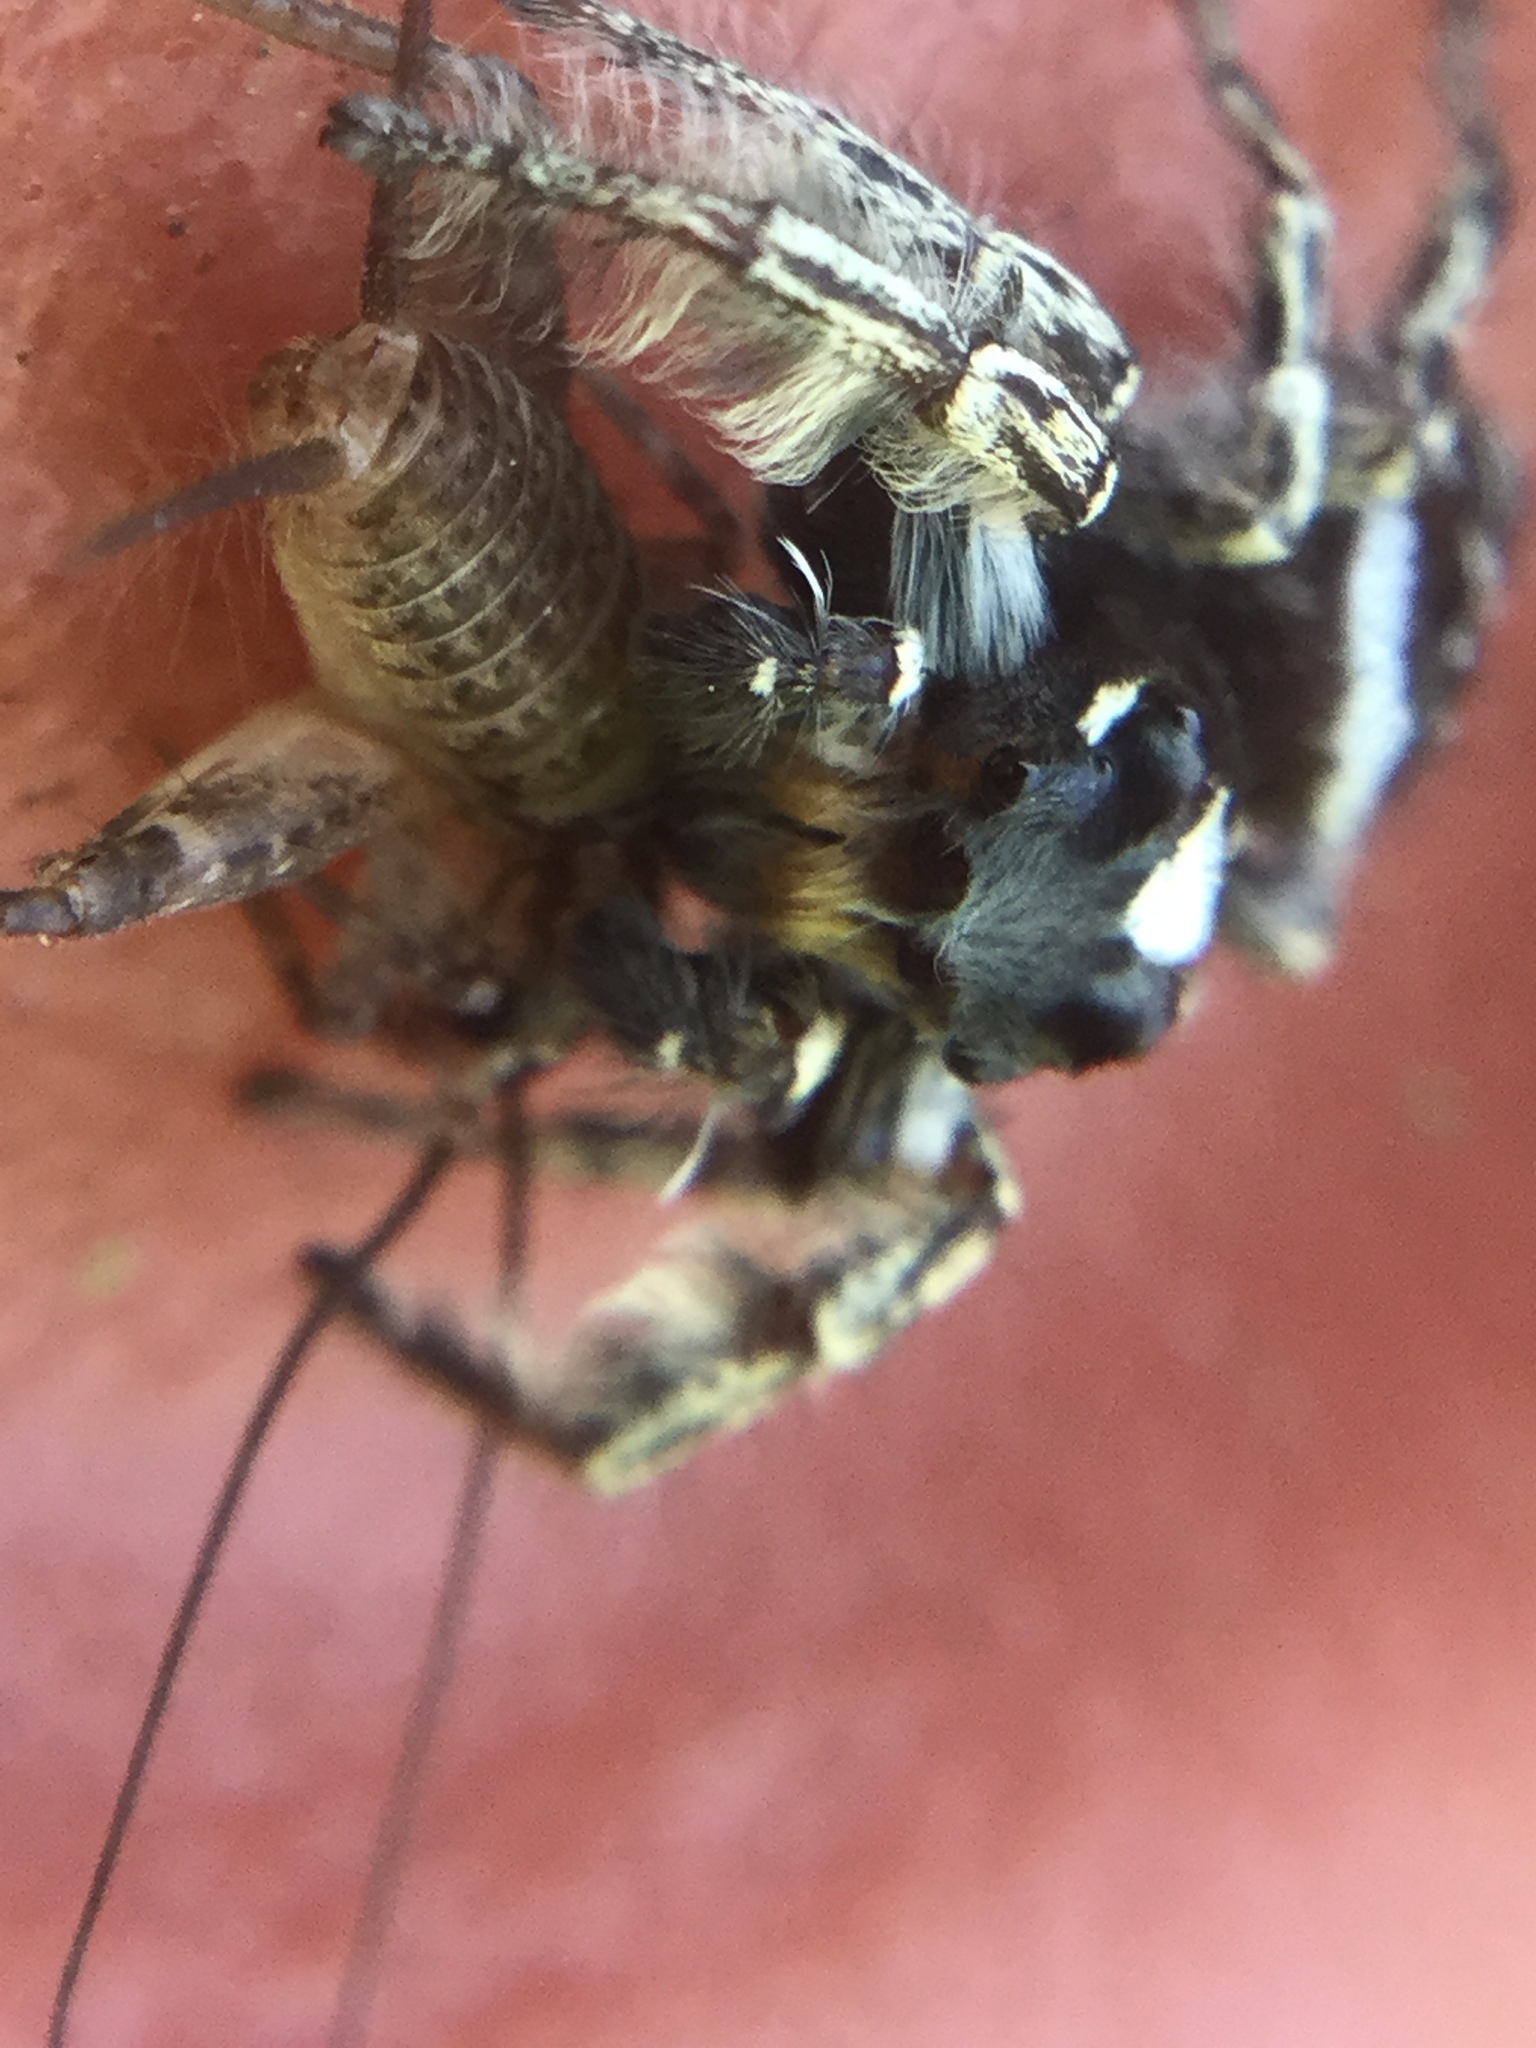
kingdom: Animalia
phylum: Arthropoda
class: Arachnida
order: Araneae
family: Salticidae
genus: Phidippus
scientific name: Phidippus putnami
